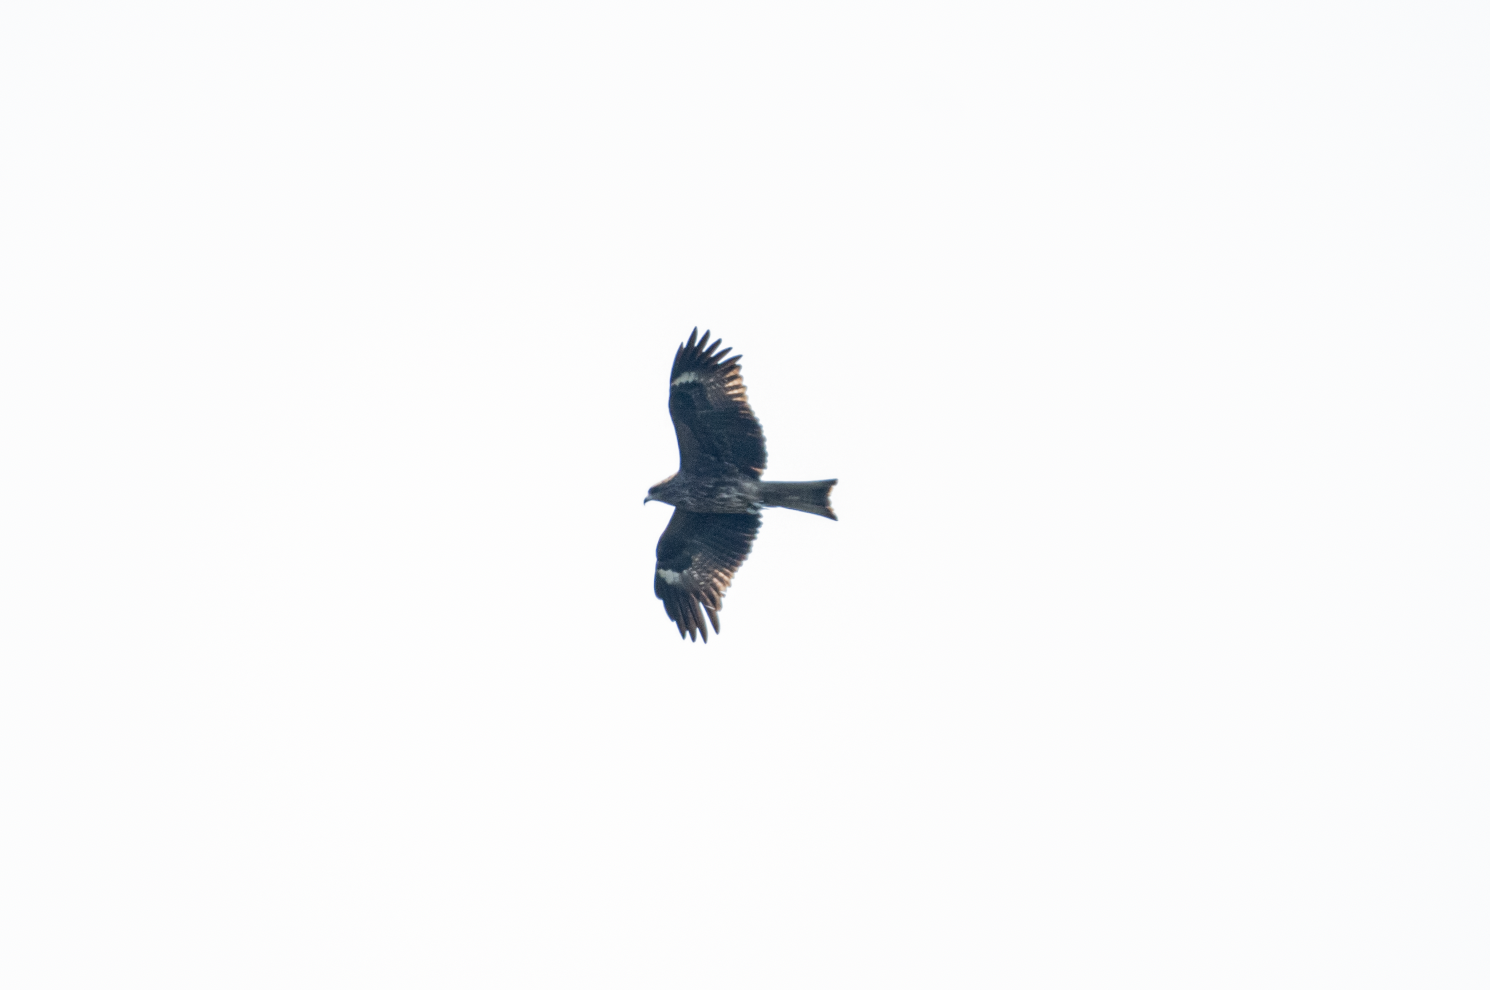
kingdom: Animalia
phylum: Chordata
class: Aves
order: Accipitriformes
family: Accipitridae
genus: Milvus
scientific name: Milvus migrans
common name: Black kite
